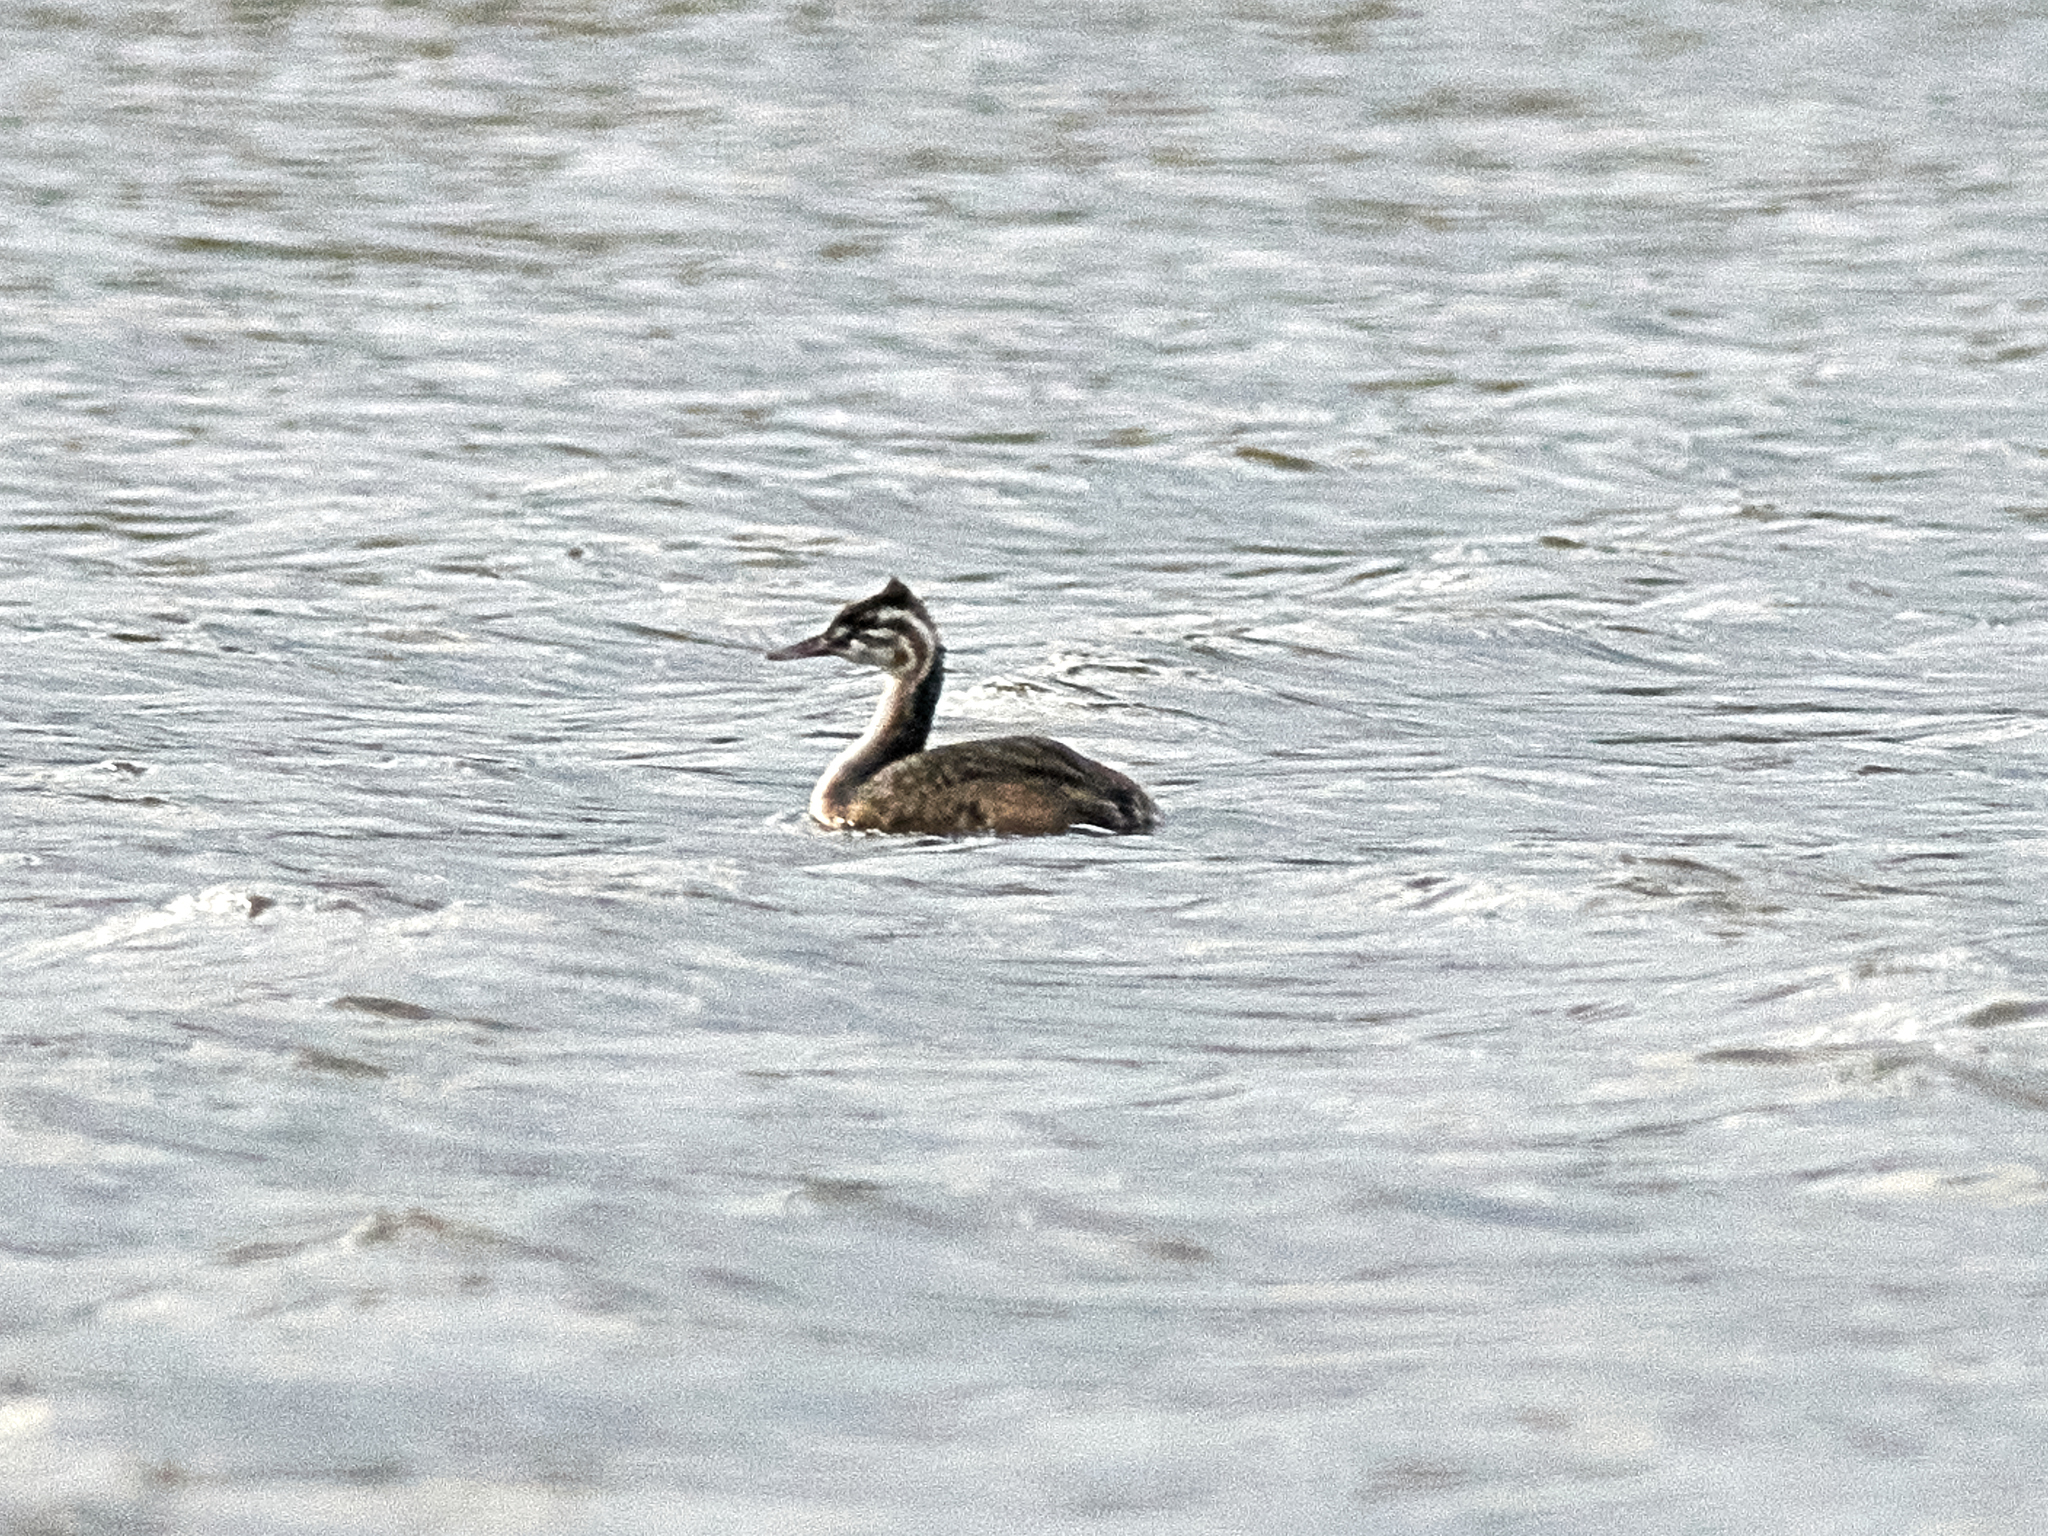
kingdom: Animalia
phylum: Chordata
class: Aves
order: Podicipediformes
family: Podicipedidae
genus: Podiceps
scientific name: Podiceps cristatus
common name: Great crested grebe
